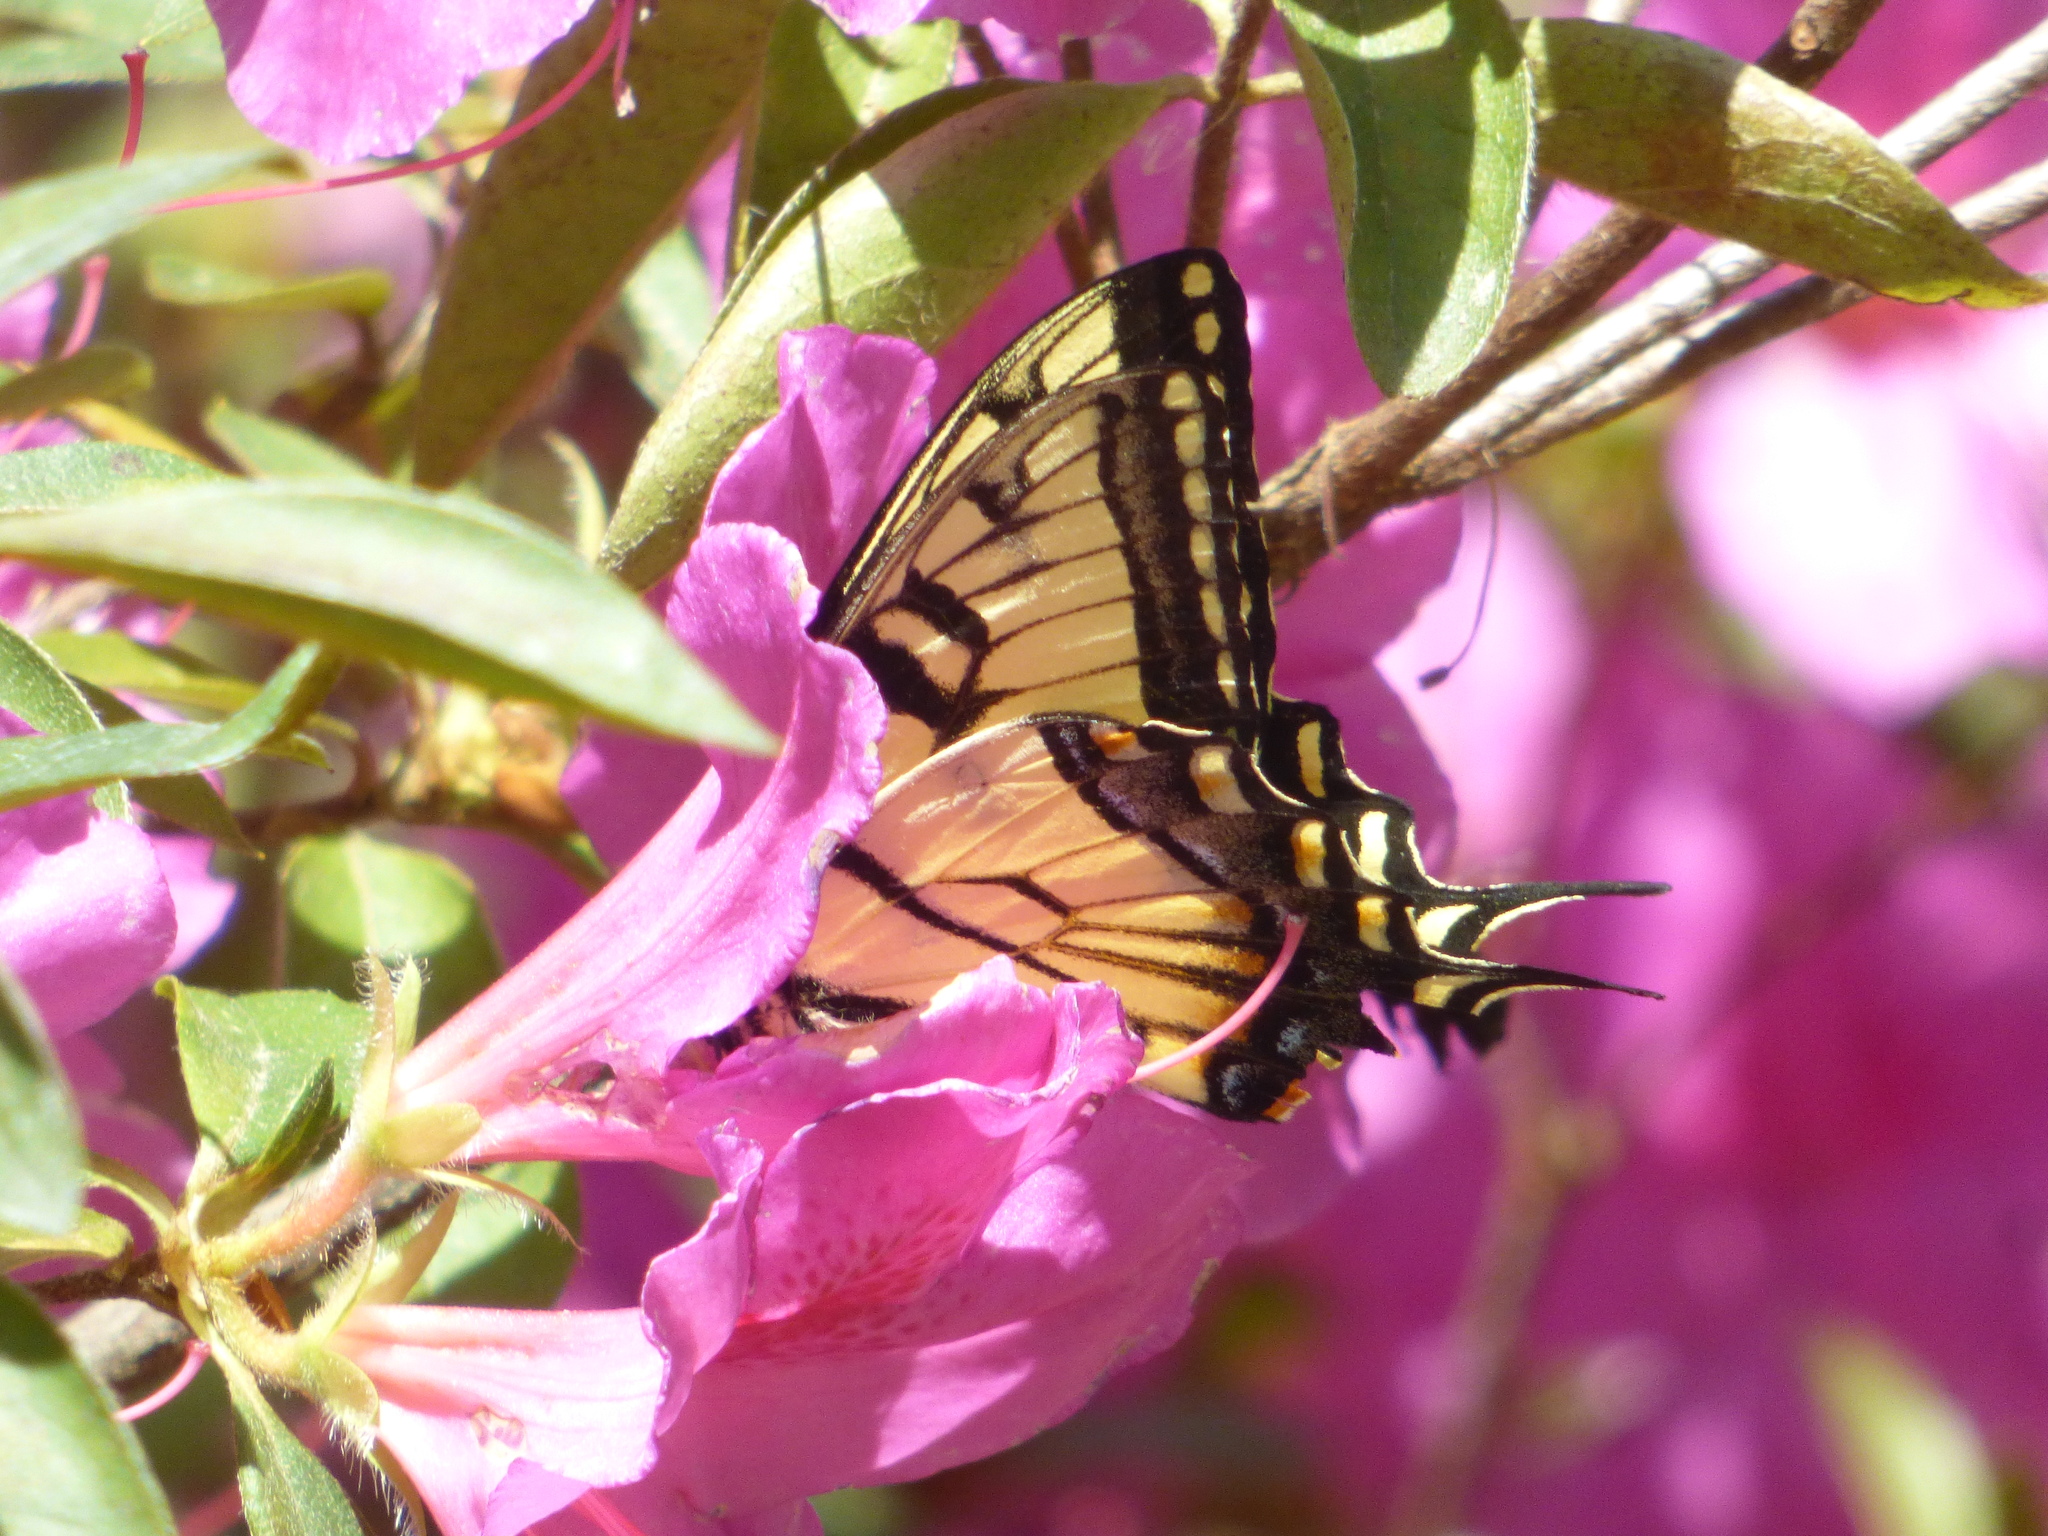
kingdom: Animalia
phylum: Arthropoda
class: Insecta
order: Lepidoptera
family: Papilionidae
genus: Papilio
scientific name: Papilio glaucus
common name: Tiger swallowtail
